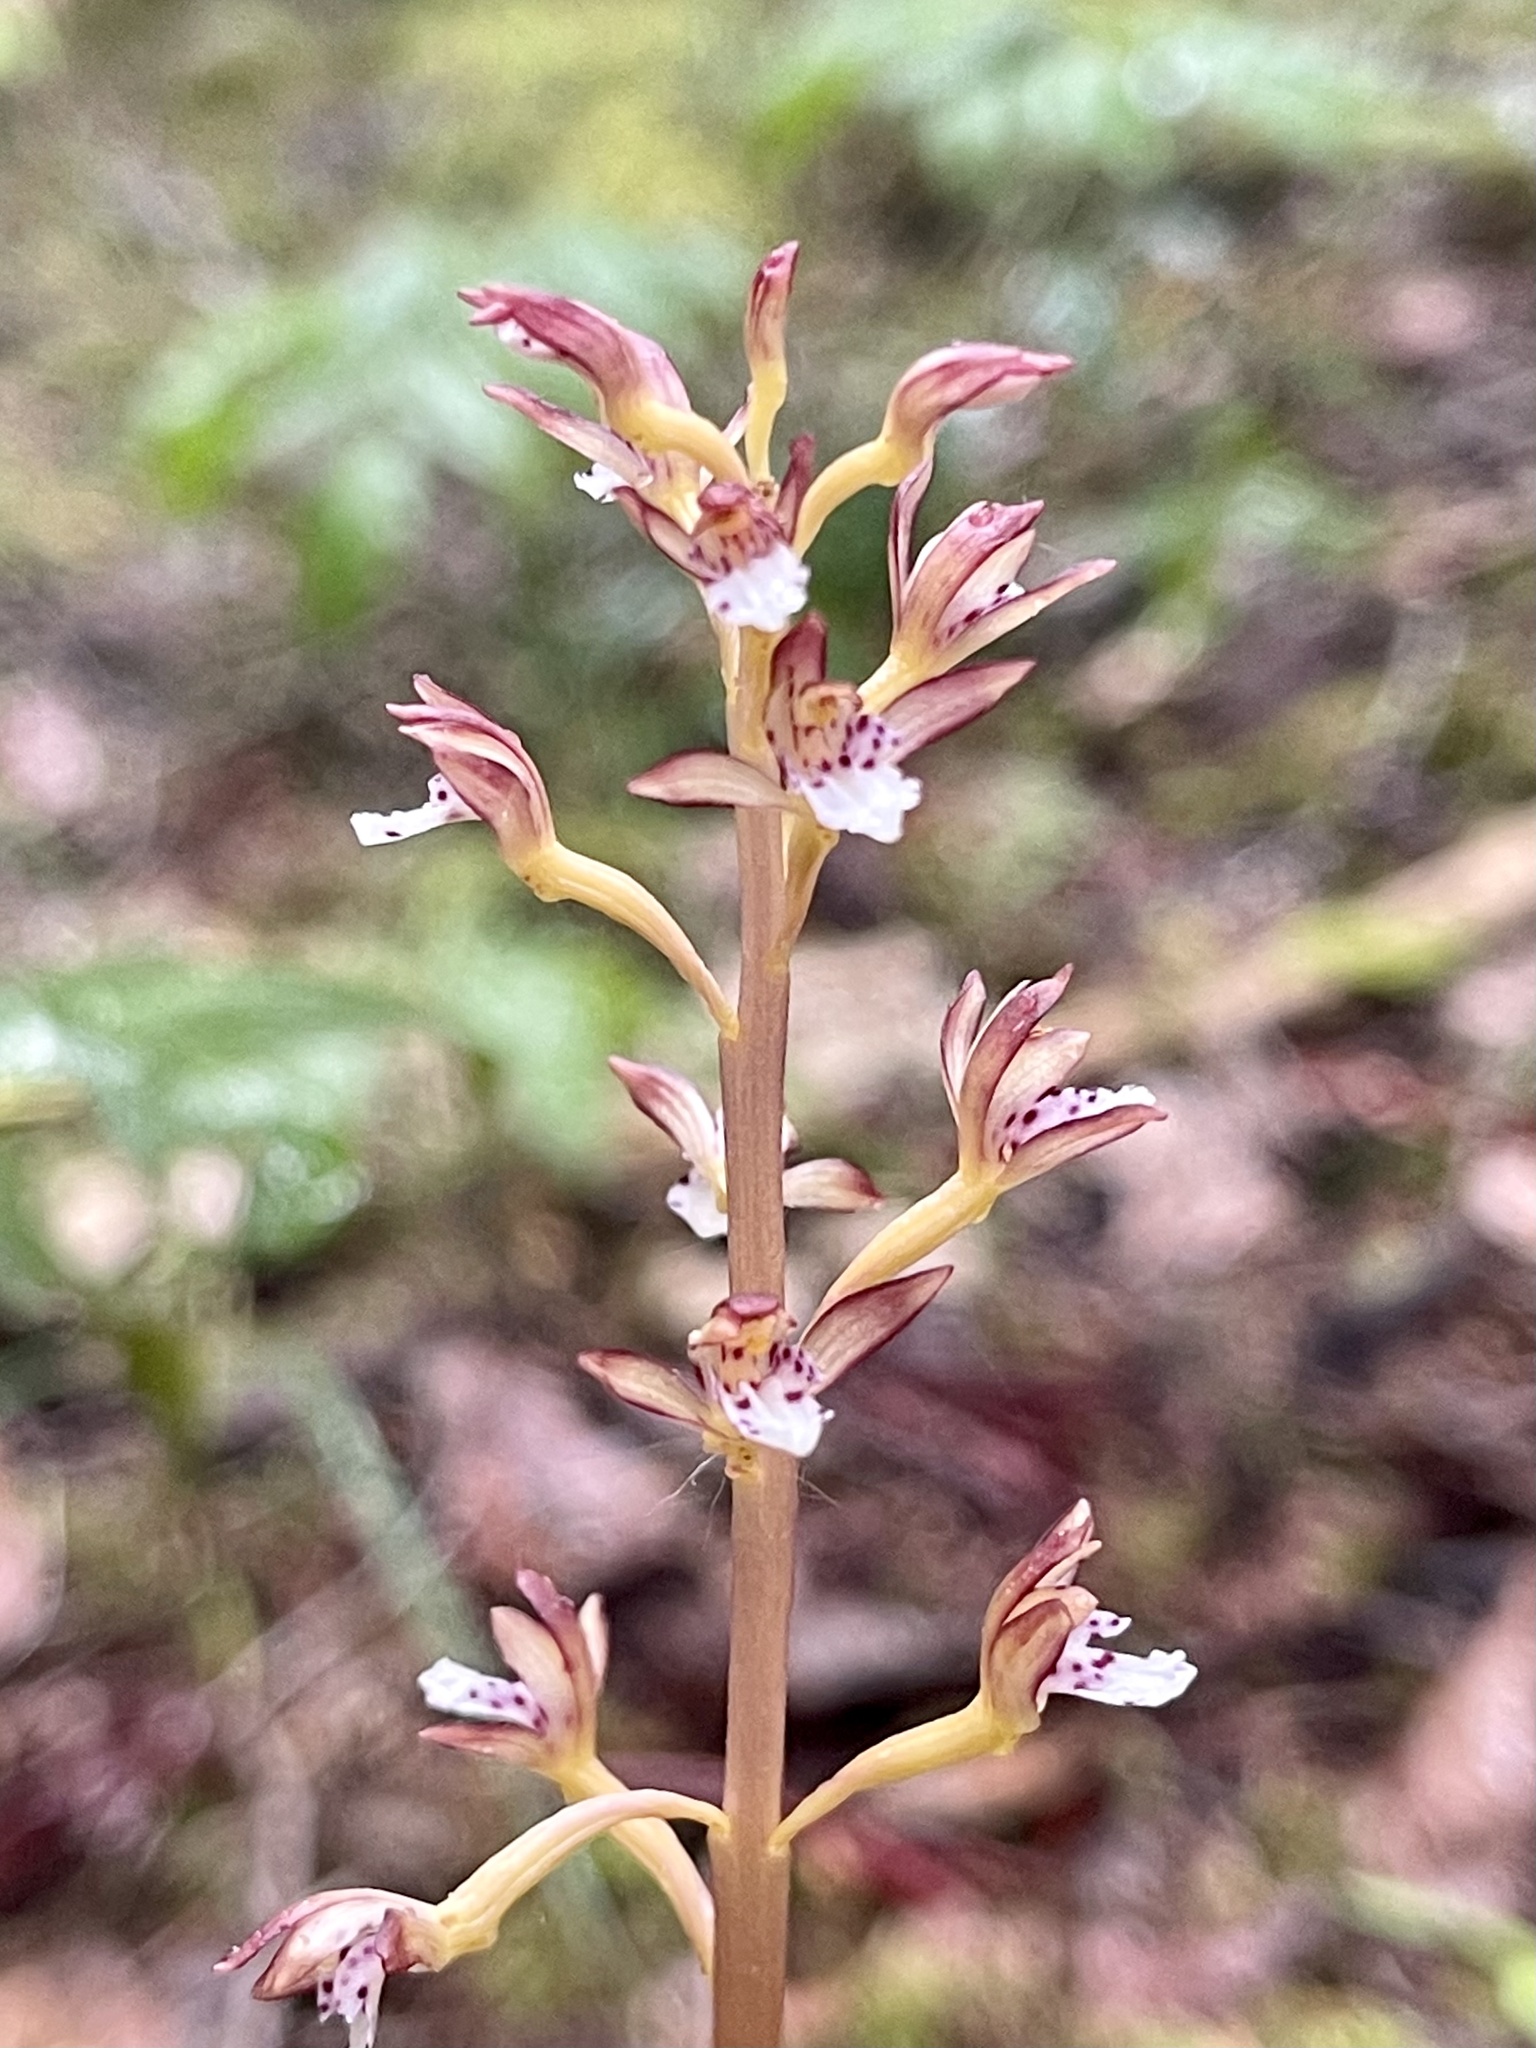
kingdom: Plantae
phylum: Tracheophyta
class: Liliopsida
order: Asparagales
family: Orchidaceae
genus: Corallorhiza
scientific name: Corallorhiza maculata
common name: Spotted coralroot
